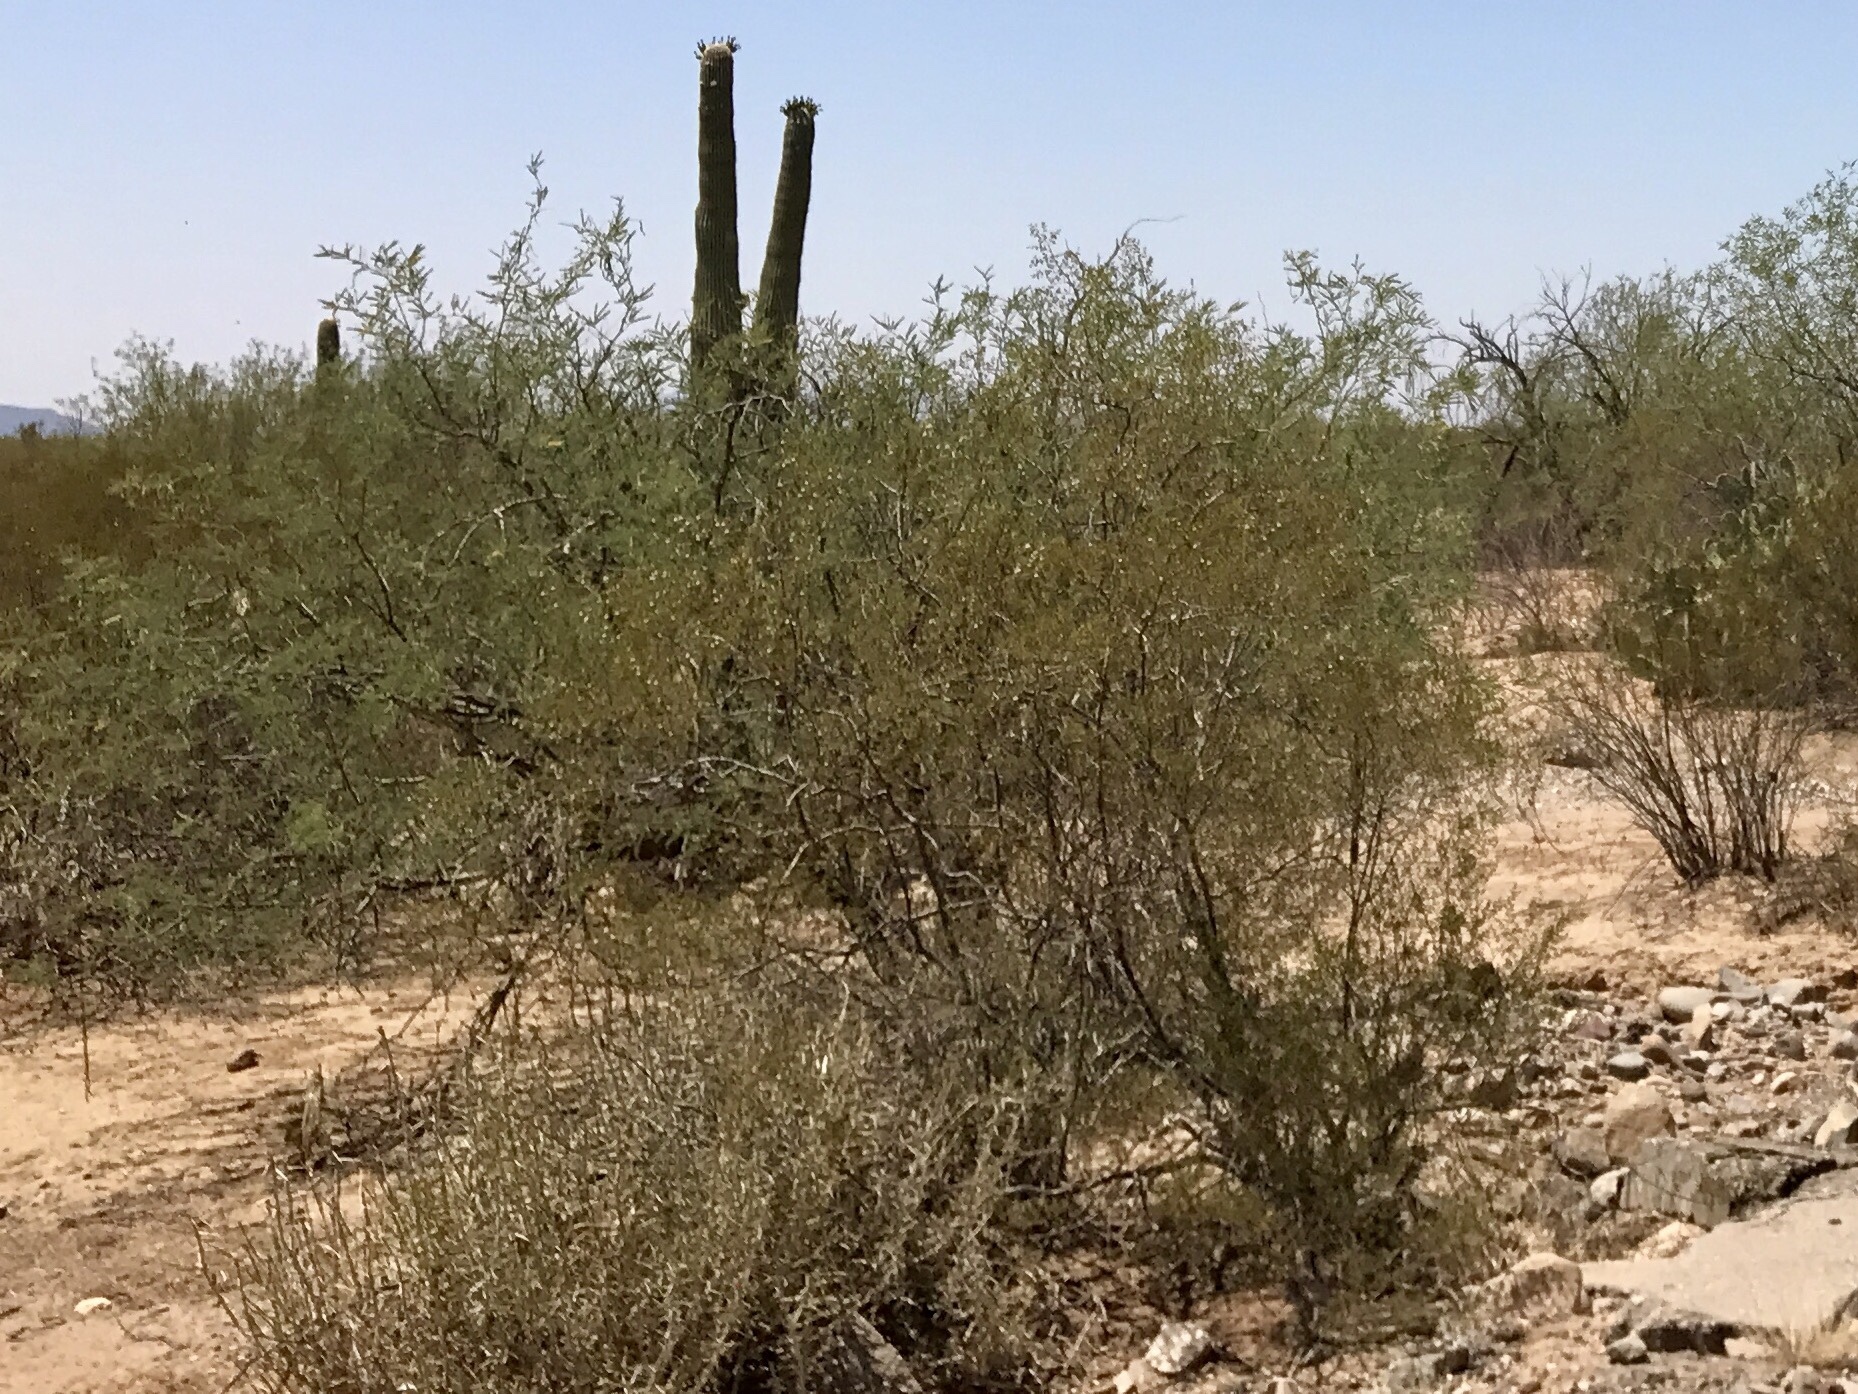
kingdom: Plantae
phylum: Tracheophyta
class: Magnoliopsida
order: Zygophyllales
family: Zygophyllaceae
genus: Larrea
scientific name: Larrea tridentata
